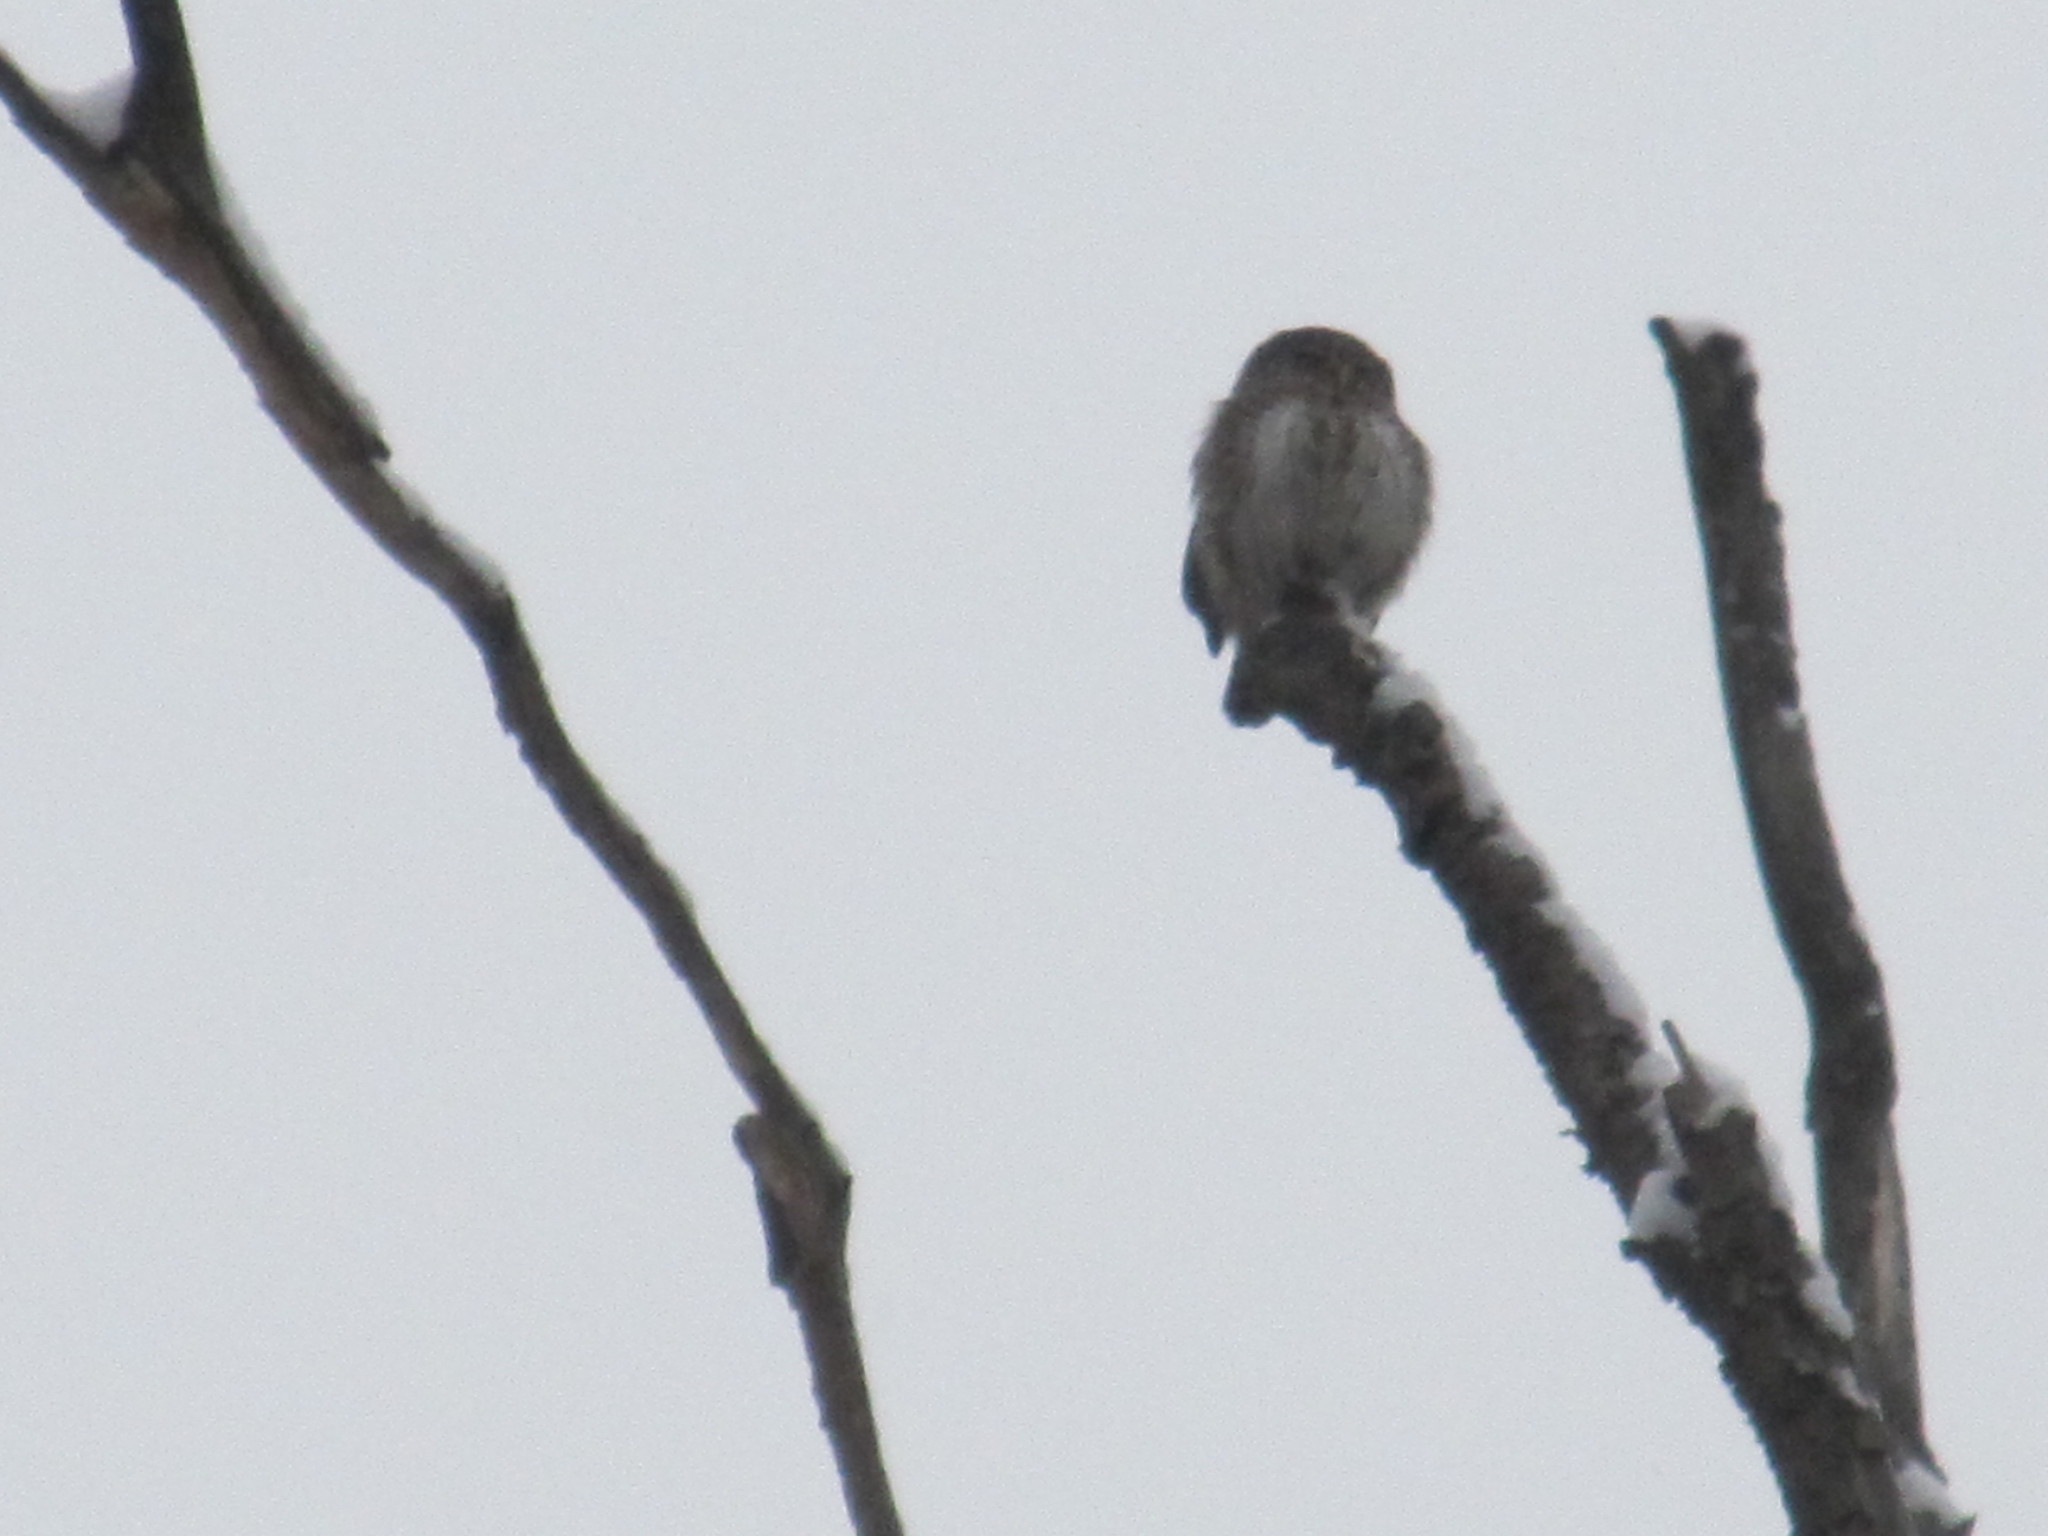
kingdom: Animalia
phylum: Chordata
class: Aves
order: Strigiformes
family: Strigidae
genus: Glaucidium
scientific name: Glaucidium passerinum
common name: Eurasian pygmy owl
